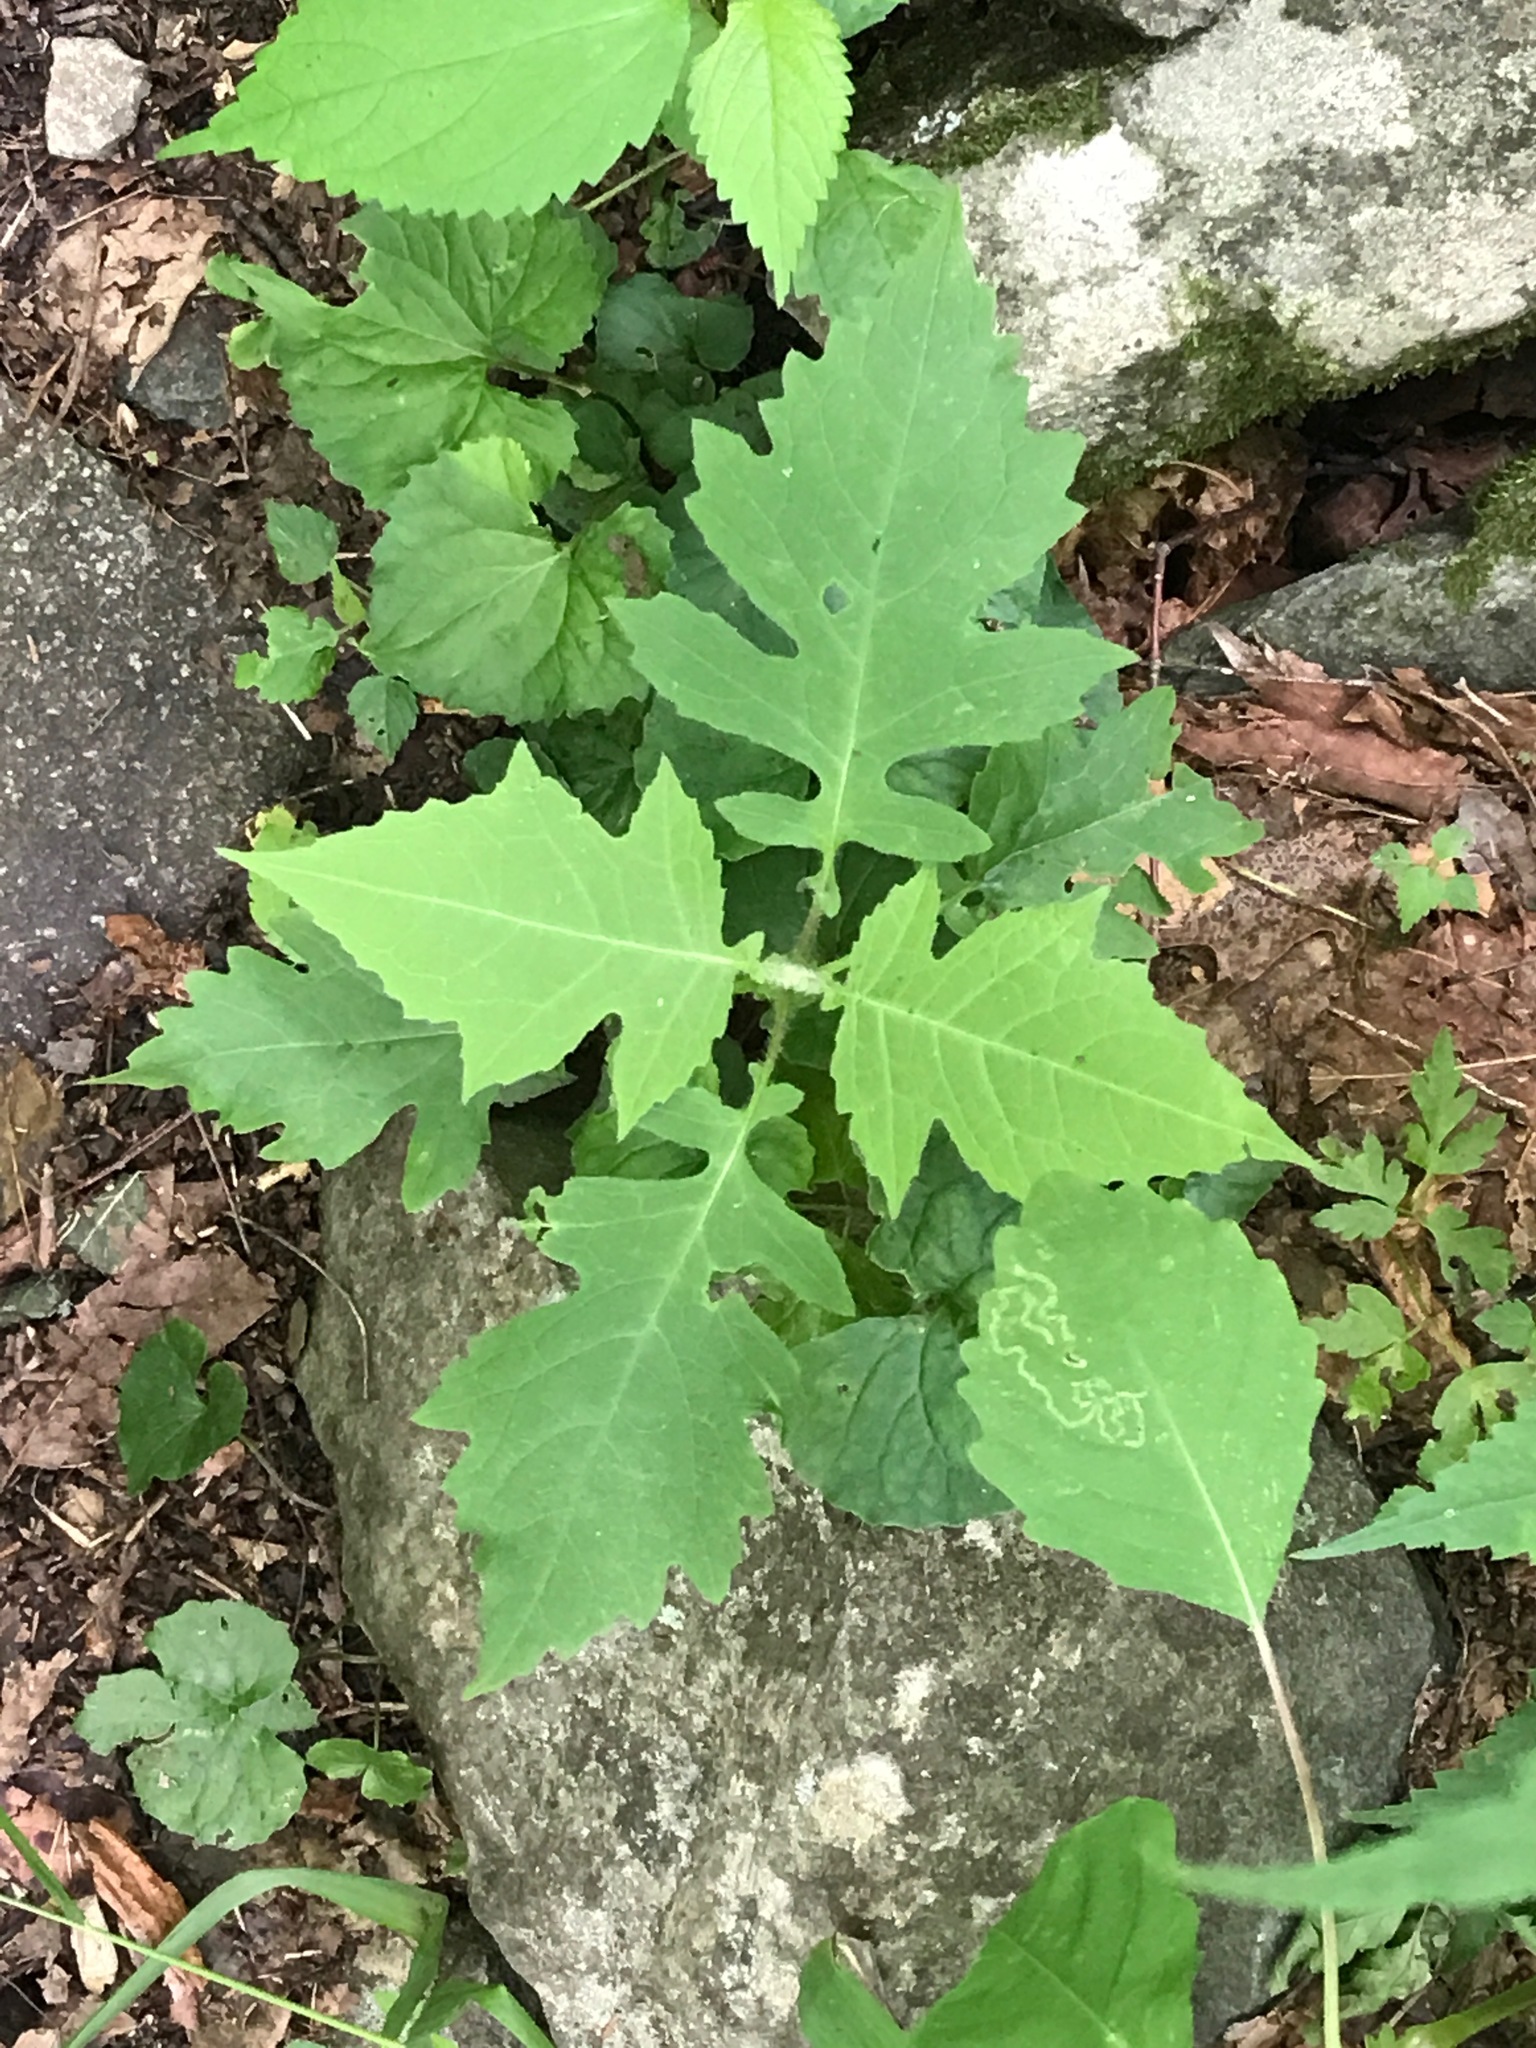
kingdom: Plantae
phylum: Tracheophyta
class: Magnoliopsida
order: Asterales
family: Asteraceae
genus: Smallanthus
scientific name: Smallanthus uvedalia
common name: Bear's-foot
